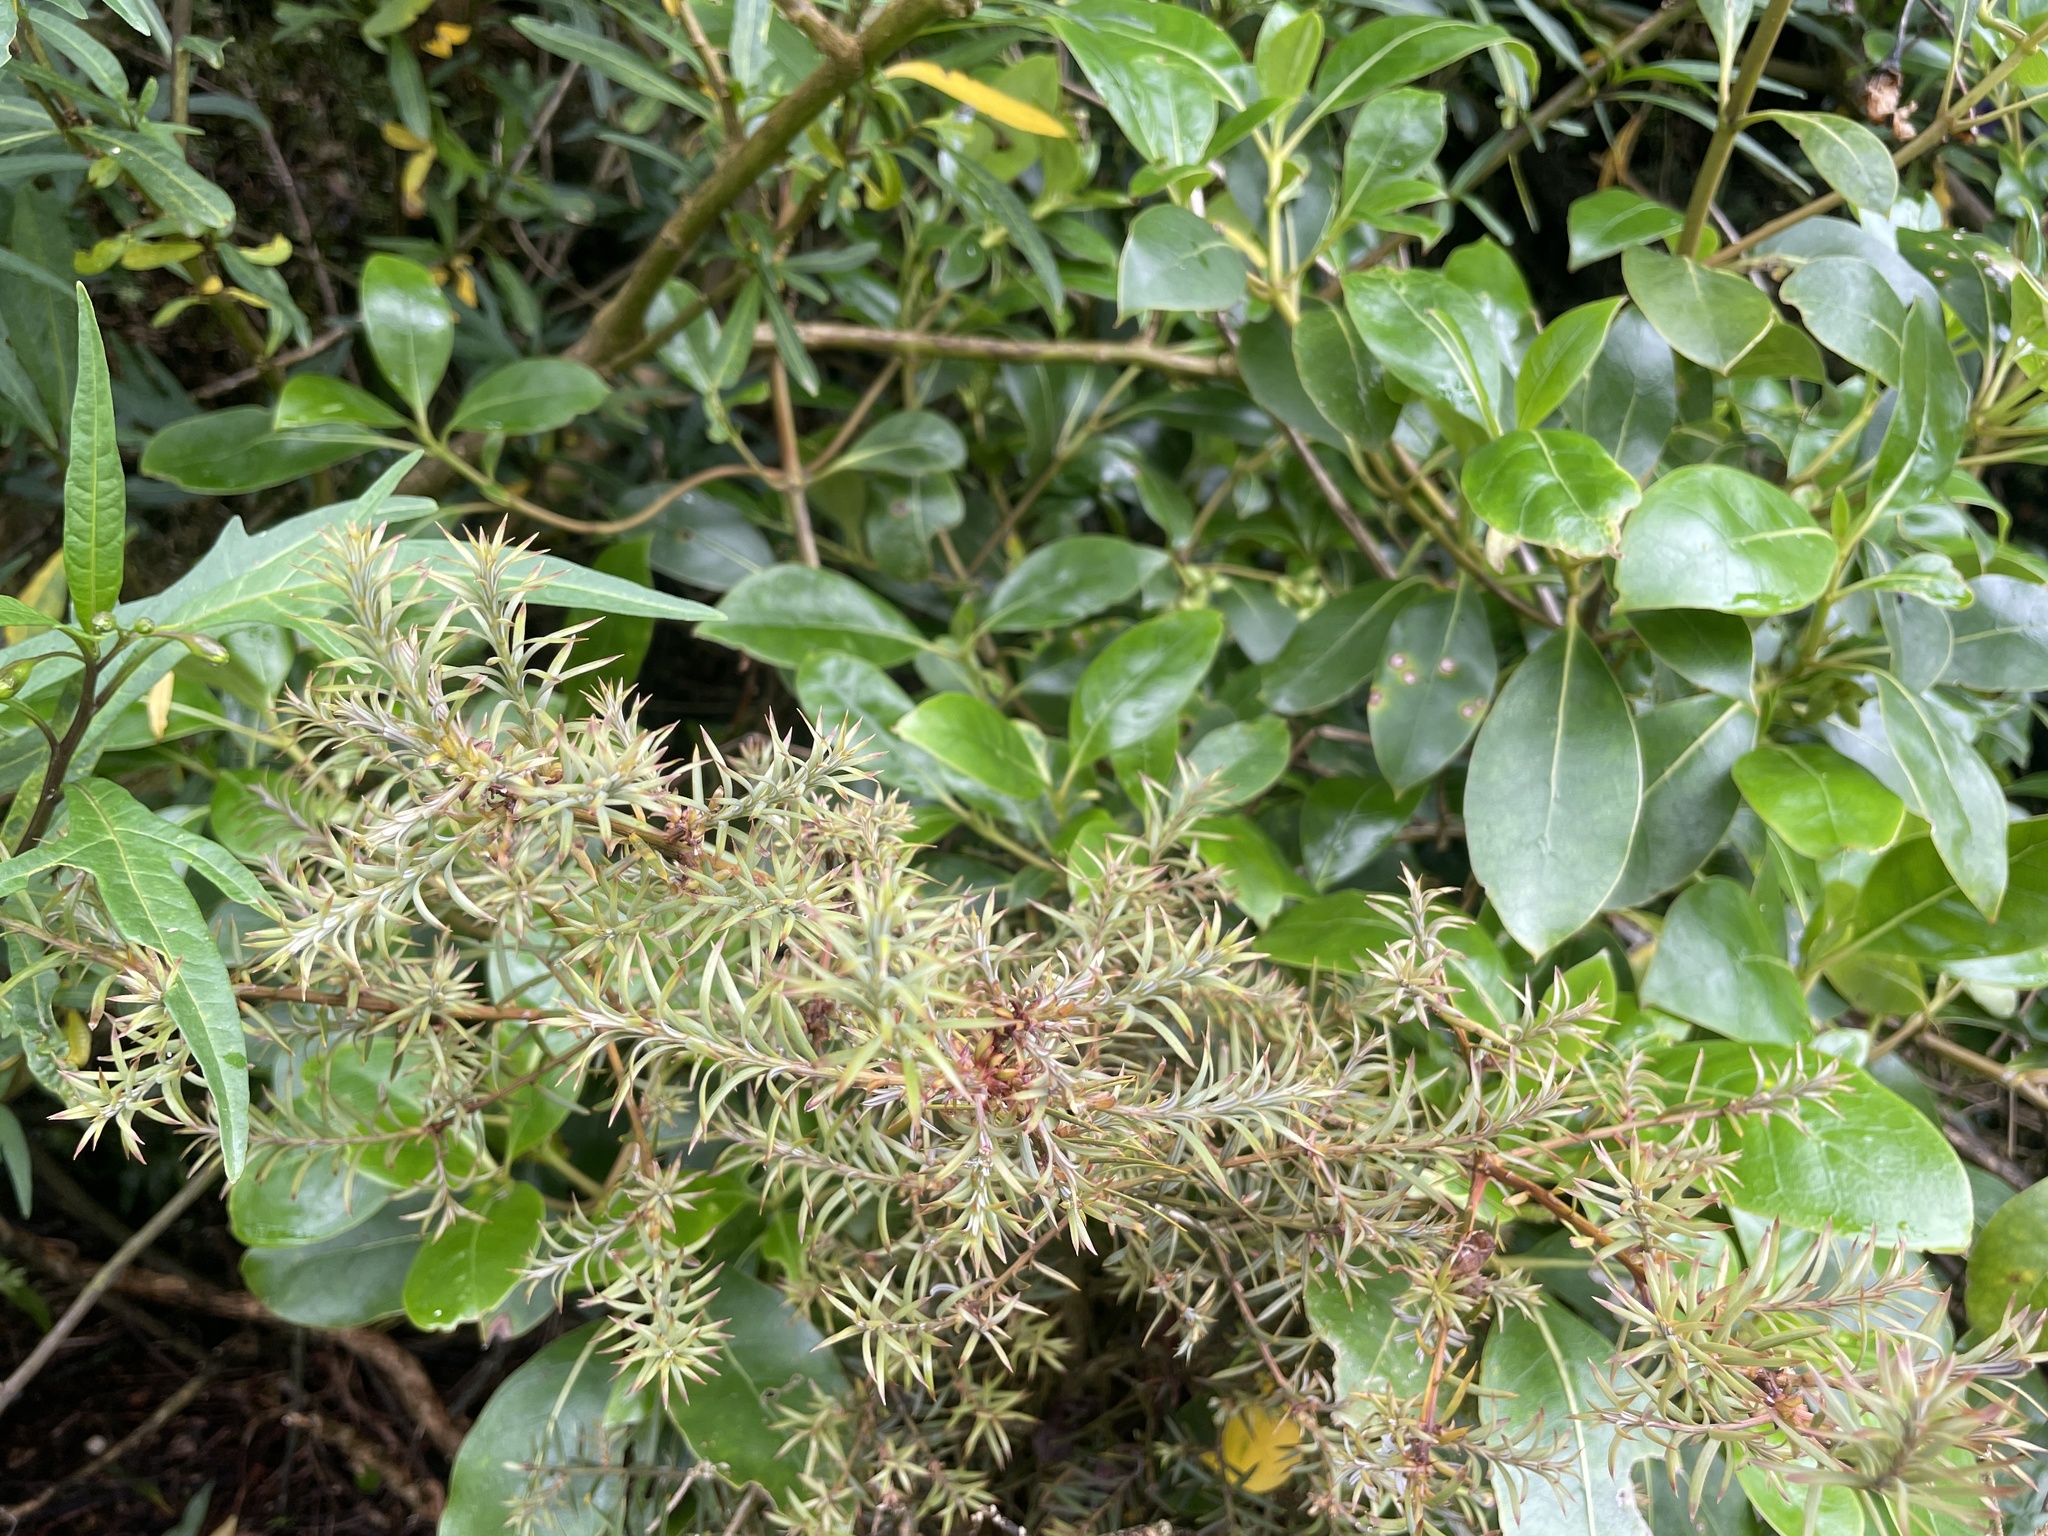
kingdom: Plantae
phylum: Tracheophyta
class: Pinopsida
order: Pinales
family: Podocarpaceae
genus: Podocarpus
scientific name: Podocarpus totara
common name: Totara
